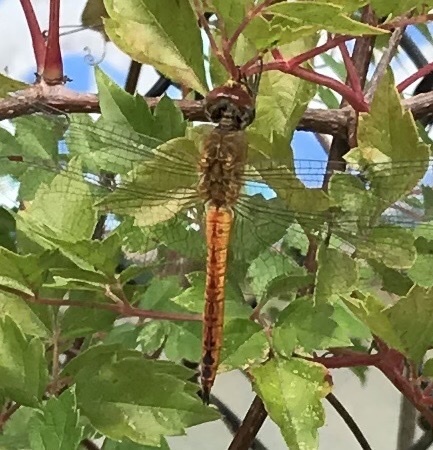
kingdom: Animalia
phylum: Arthropoda
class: Insecta
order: Odonata
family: Libellulidae
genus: Pantala
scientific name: Pantala flavescens
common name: Wandering glider
